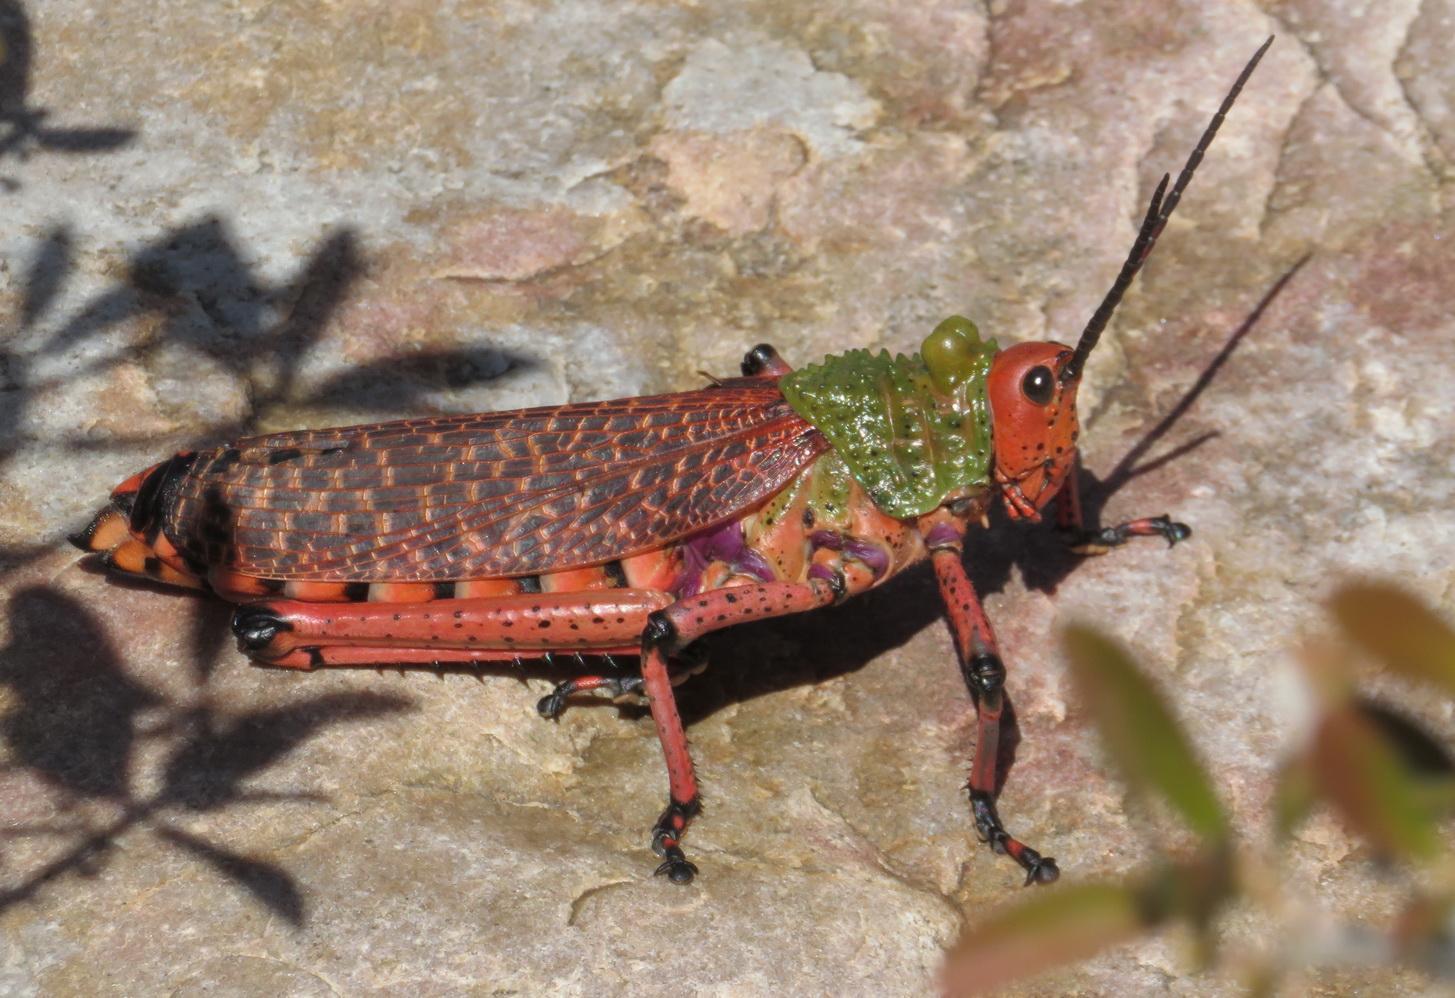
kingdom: Animalia
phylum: Arthropoda
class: Insecta
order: Orthoptera
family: Pyrgomorphidae
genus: Phymateus
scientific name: Phymateus leprosus
